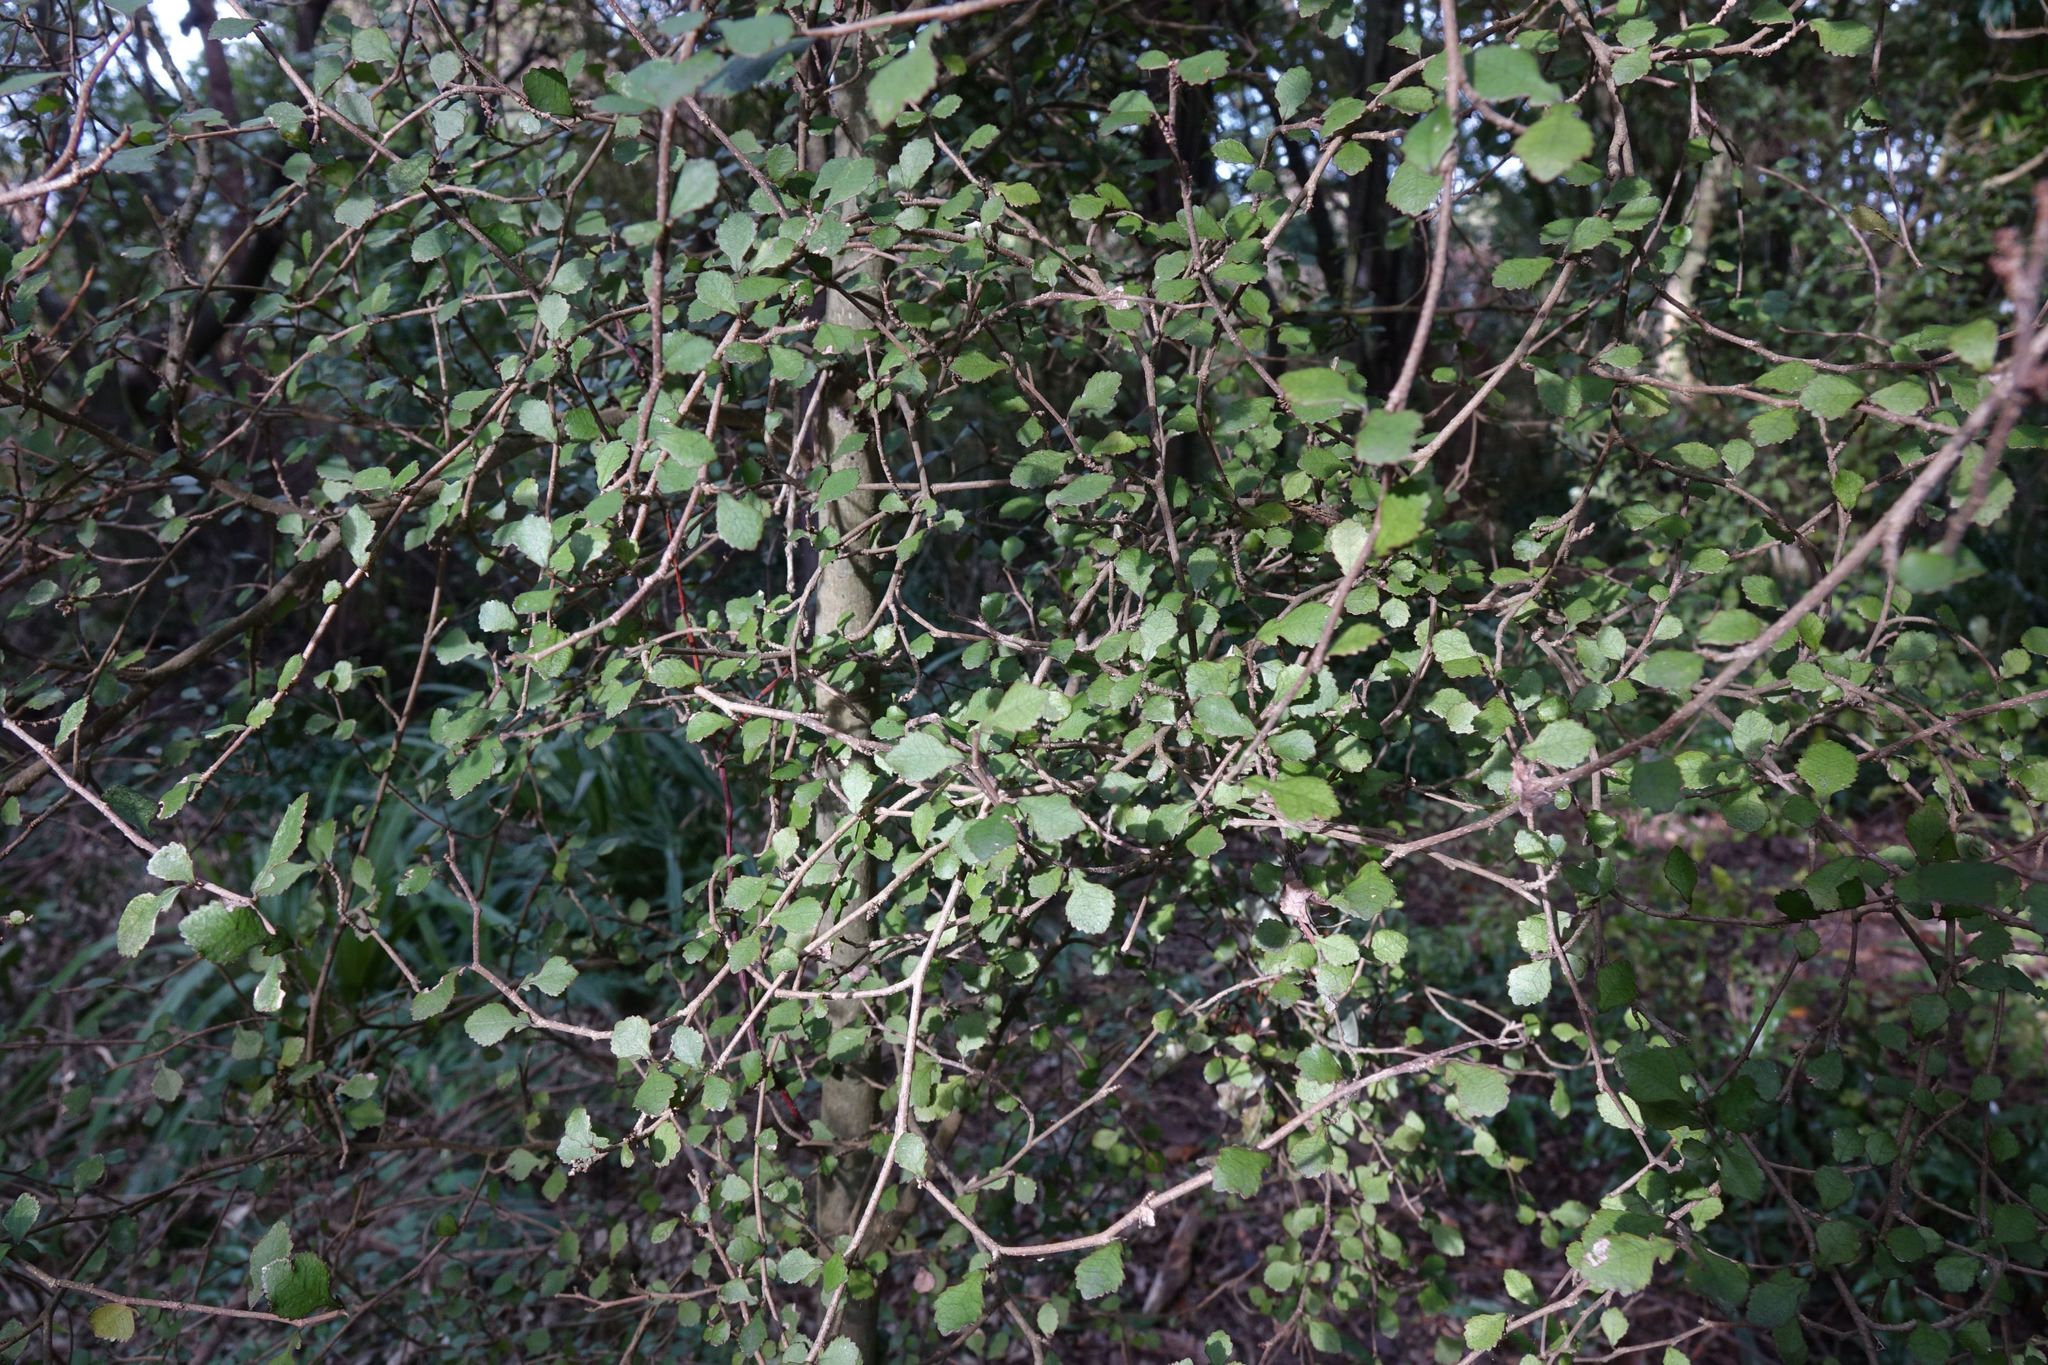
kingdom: Plantae
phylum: Tracheophyta
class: Magnoliopsida
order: Rosales
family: Moraceae
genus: Paratrophis
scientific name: Paratrophis microphylla
